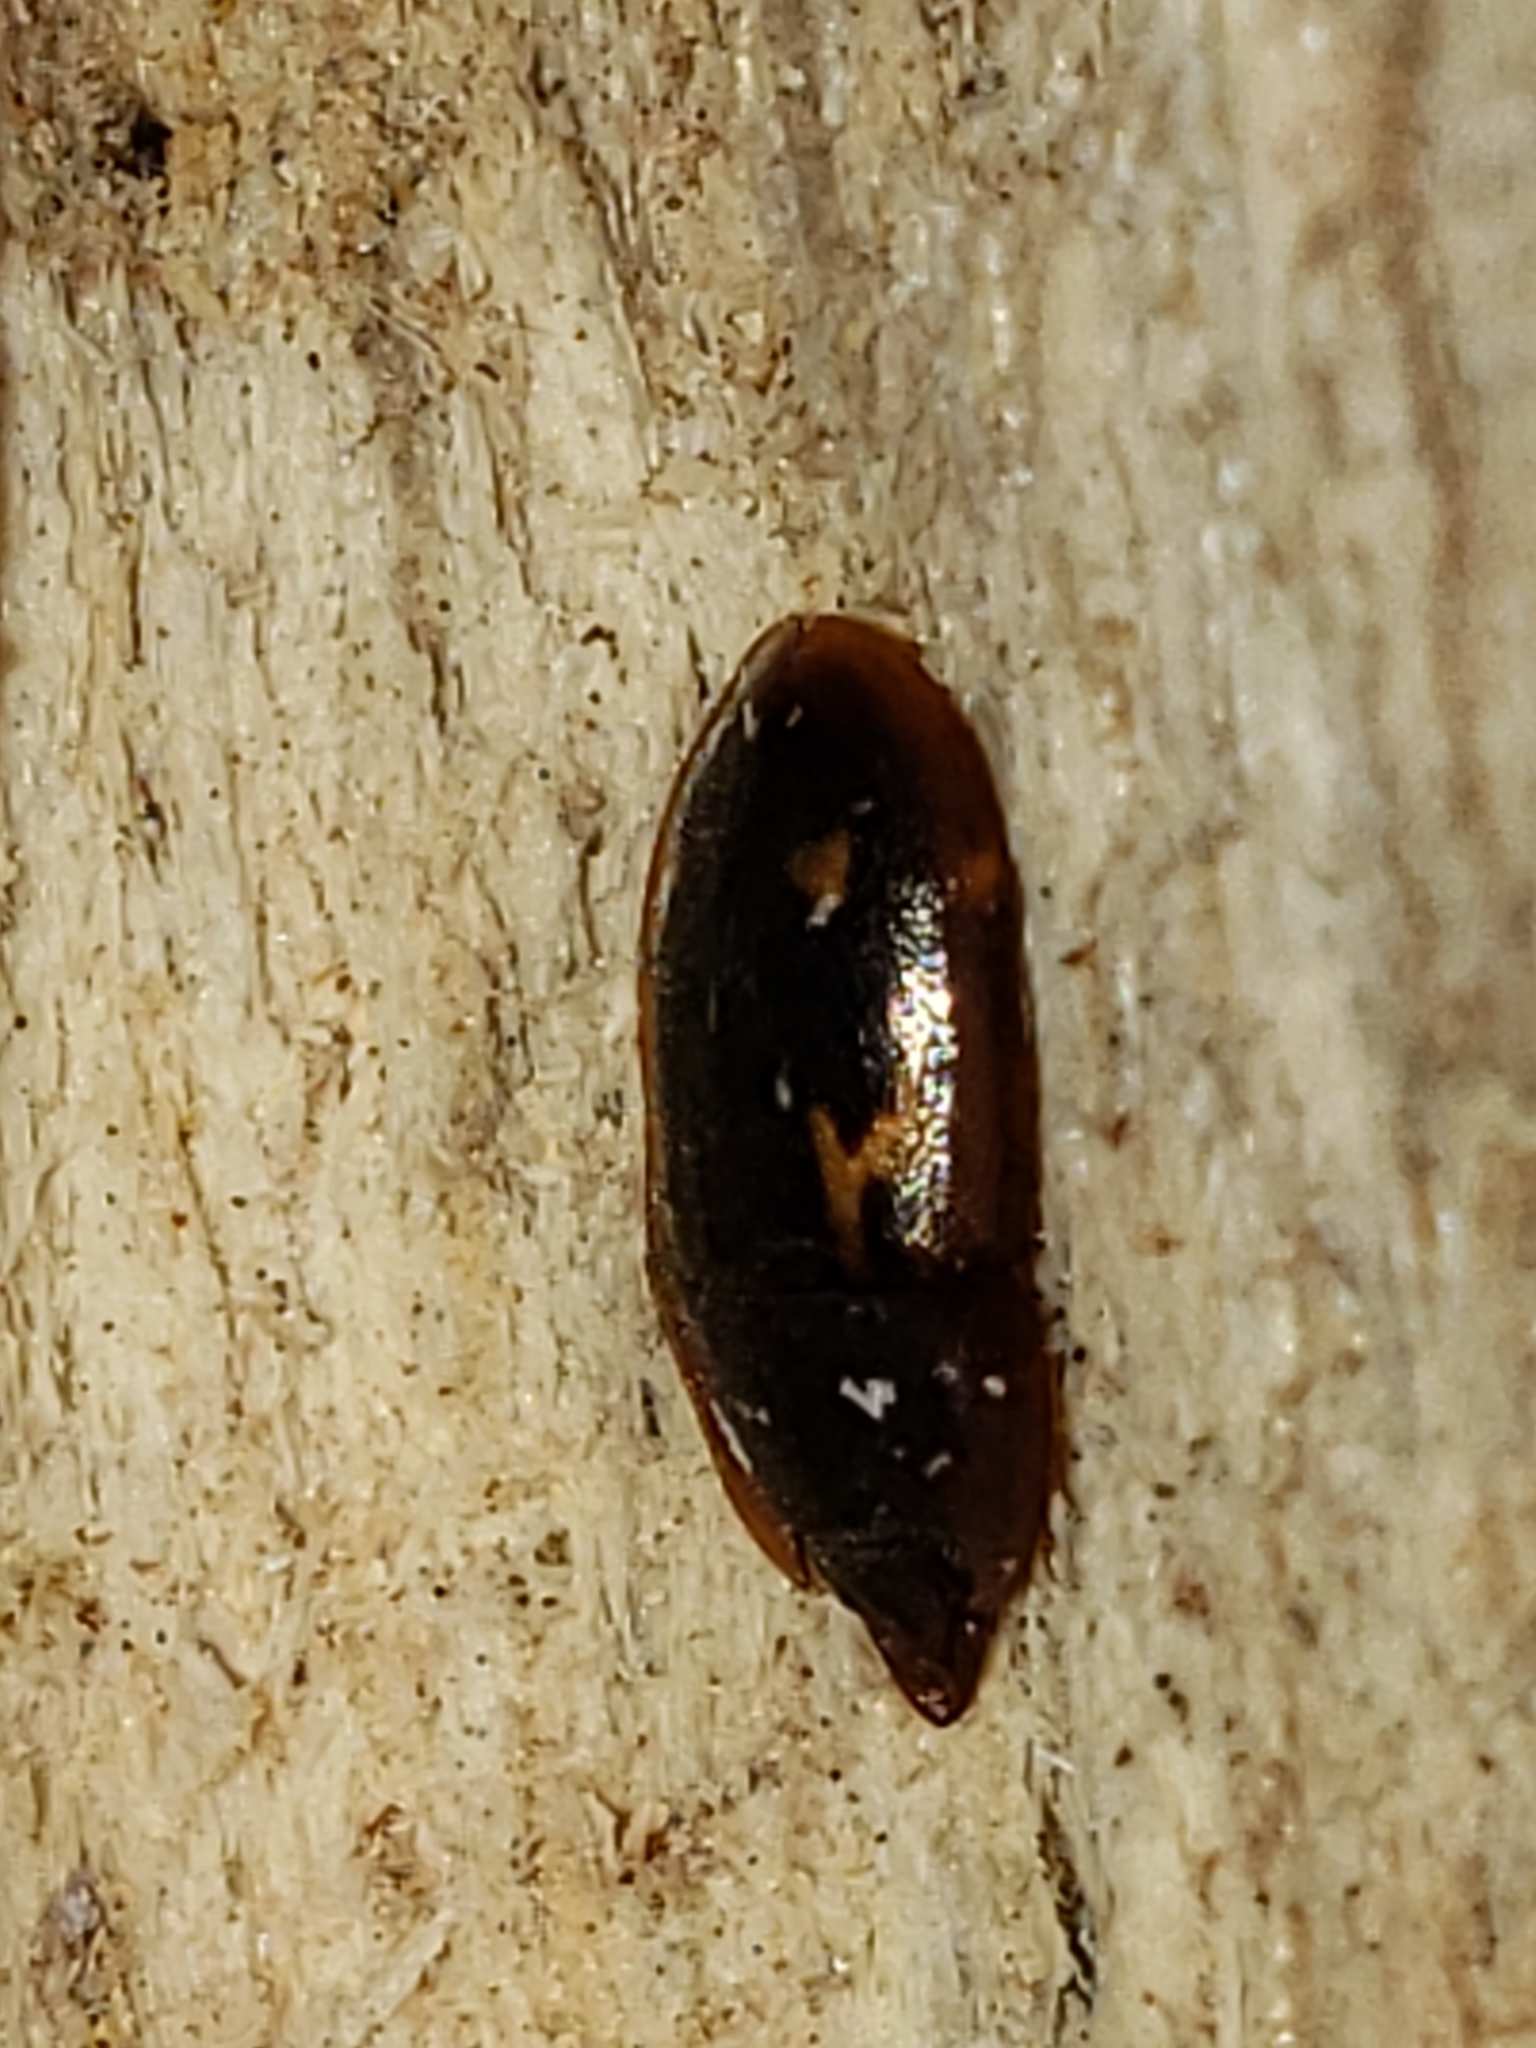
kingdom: Animalia
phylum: Arthropoda
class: Insecta
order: Coleoptera
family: Nitidulidae
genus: Prometopia
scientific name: Prometopia sexmaculata
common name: Six-spotted sap-feeding beetle
